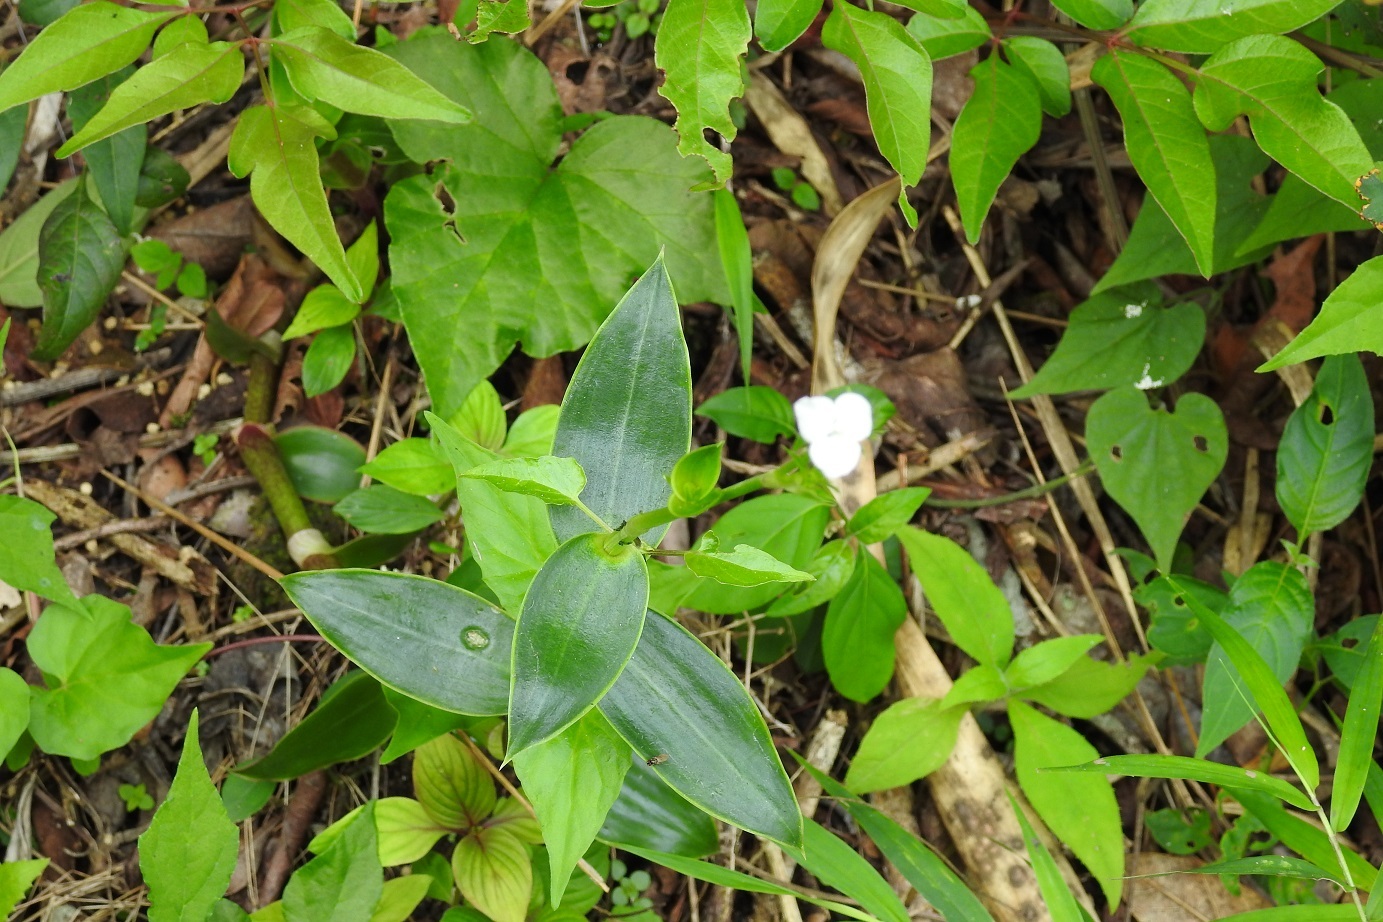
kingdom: Plantae
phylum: Tracheophyta
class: Liliopsida
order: Commelinales
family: Commelinaceae
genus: Callisia
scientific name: Callisia gentlei
